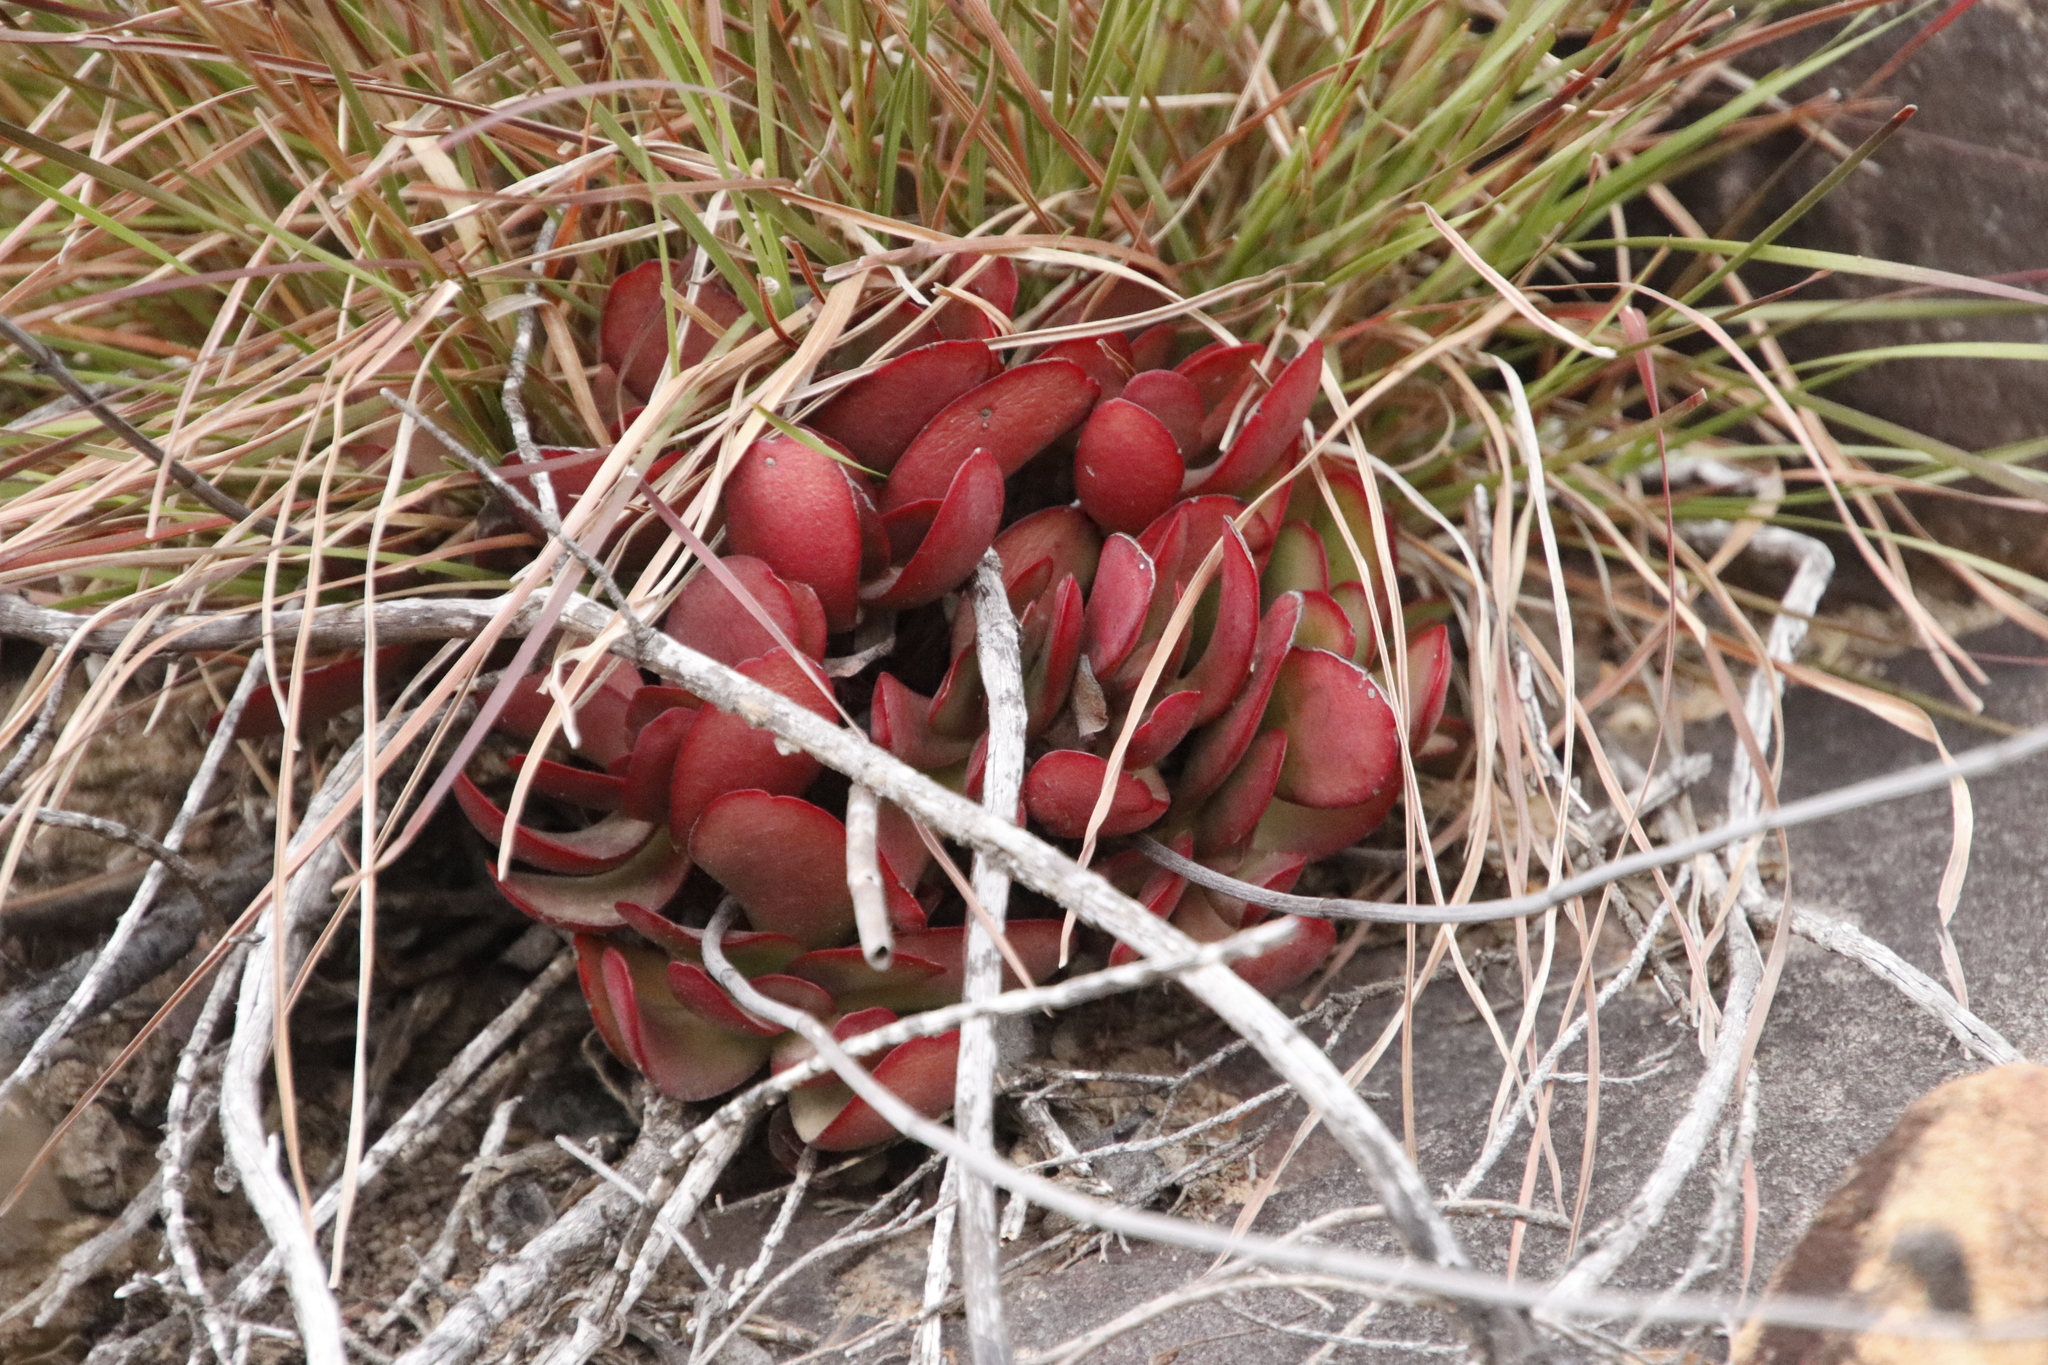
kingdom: Plantae
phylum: Tracheophyta
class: Magnoliopsida
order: Saxifragales
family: Crassulaceae
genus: Crassula
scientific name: Crassula nudicaulis
